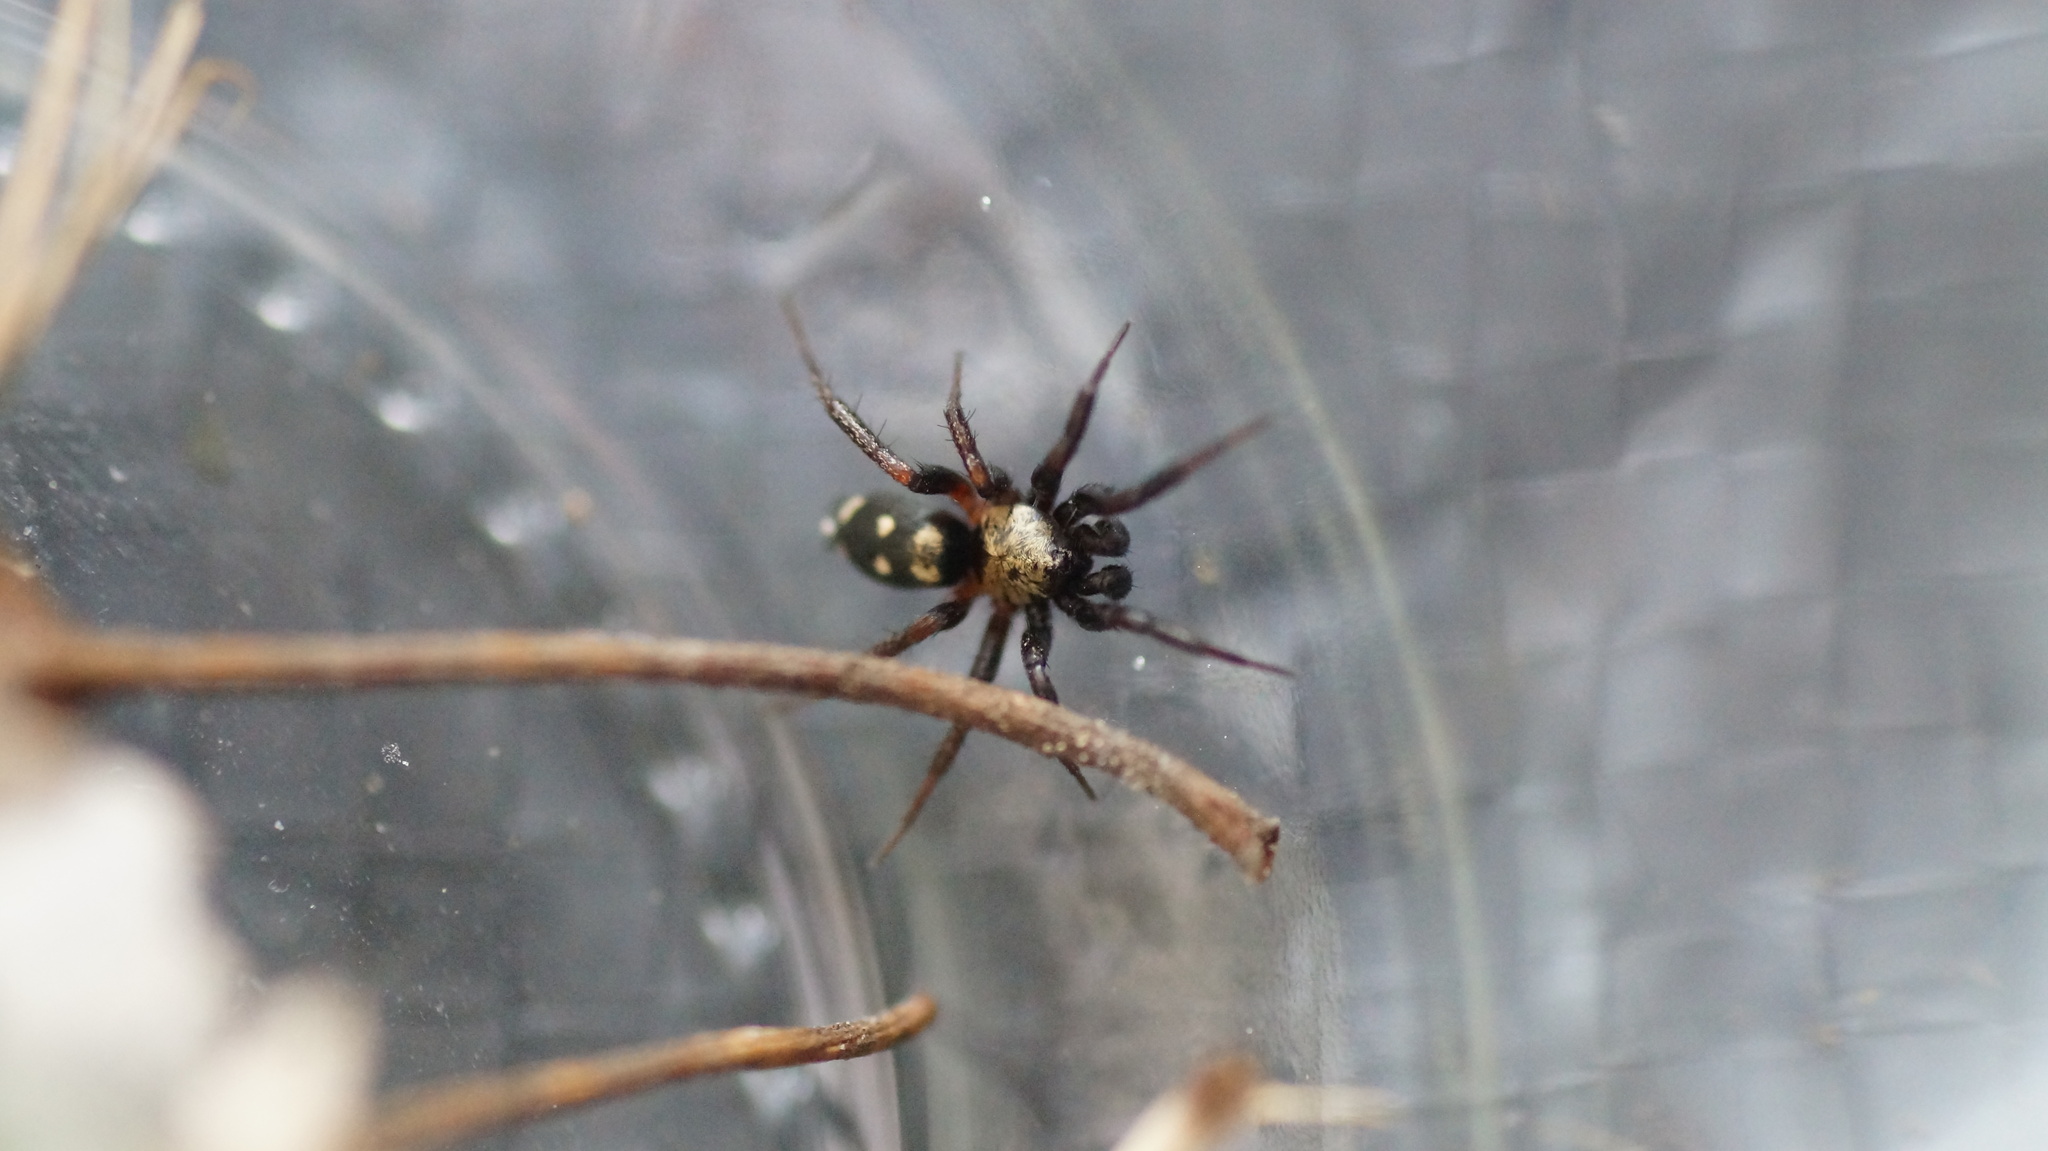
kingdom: Animalia
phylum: Arthropoda
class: Arachnida
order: Araneae
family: Gnaphosidae
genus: Callilepis
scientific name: Callilepis nocturna
